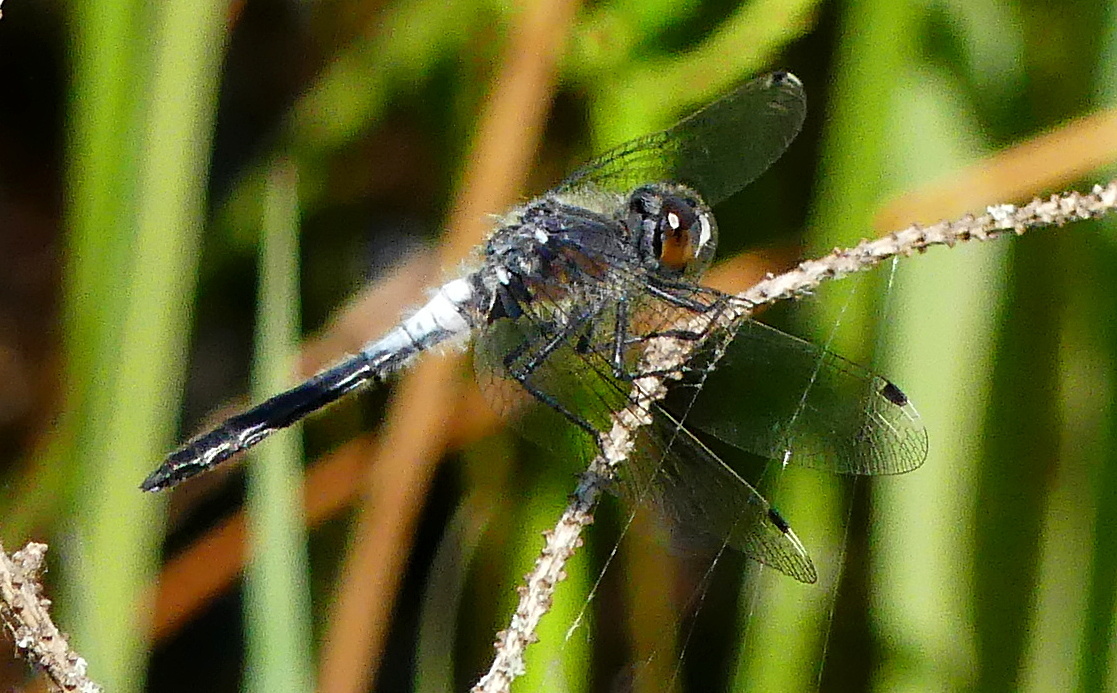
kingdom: Animalia
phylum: Arthropoda
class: Insecta
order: Odonata
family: Libellulidae
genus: Leucorrhinia
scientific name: Leucorrhinia frigida
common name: Frosted whiteface
